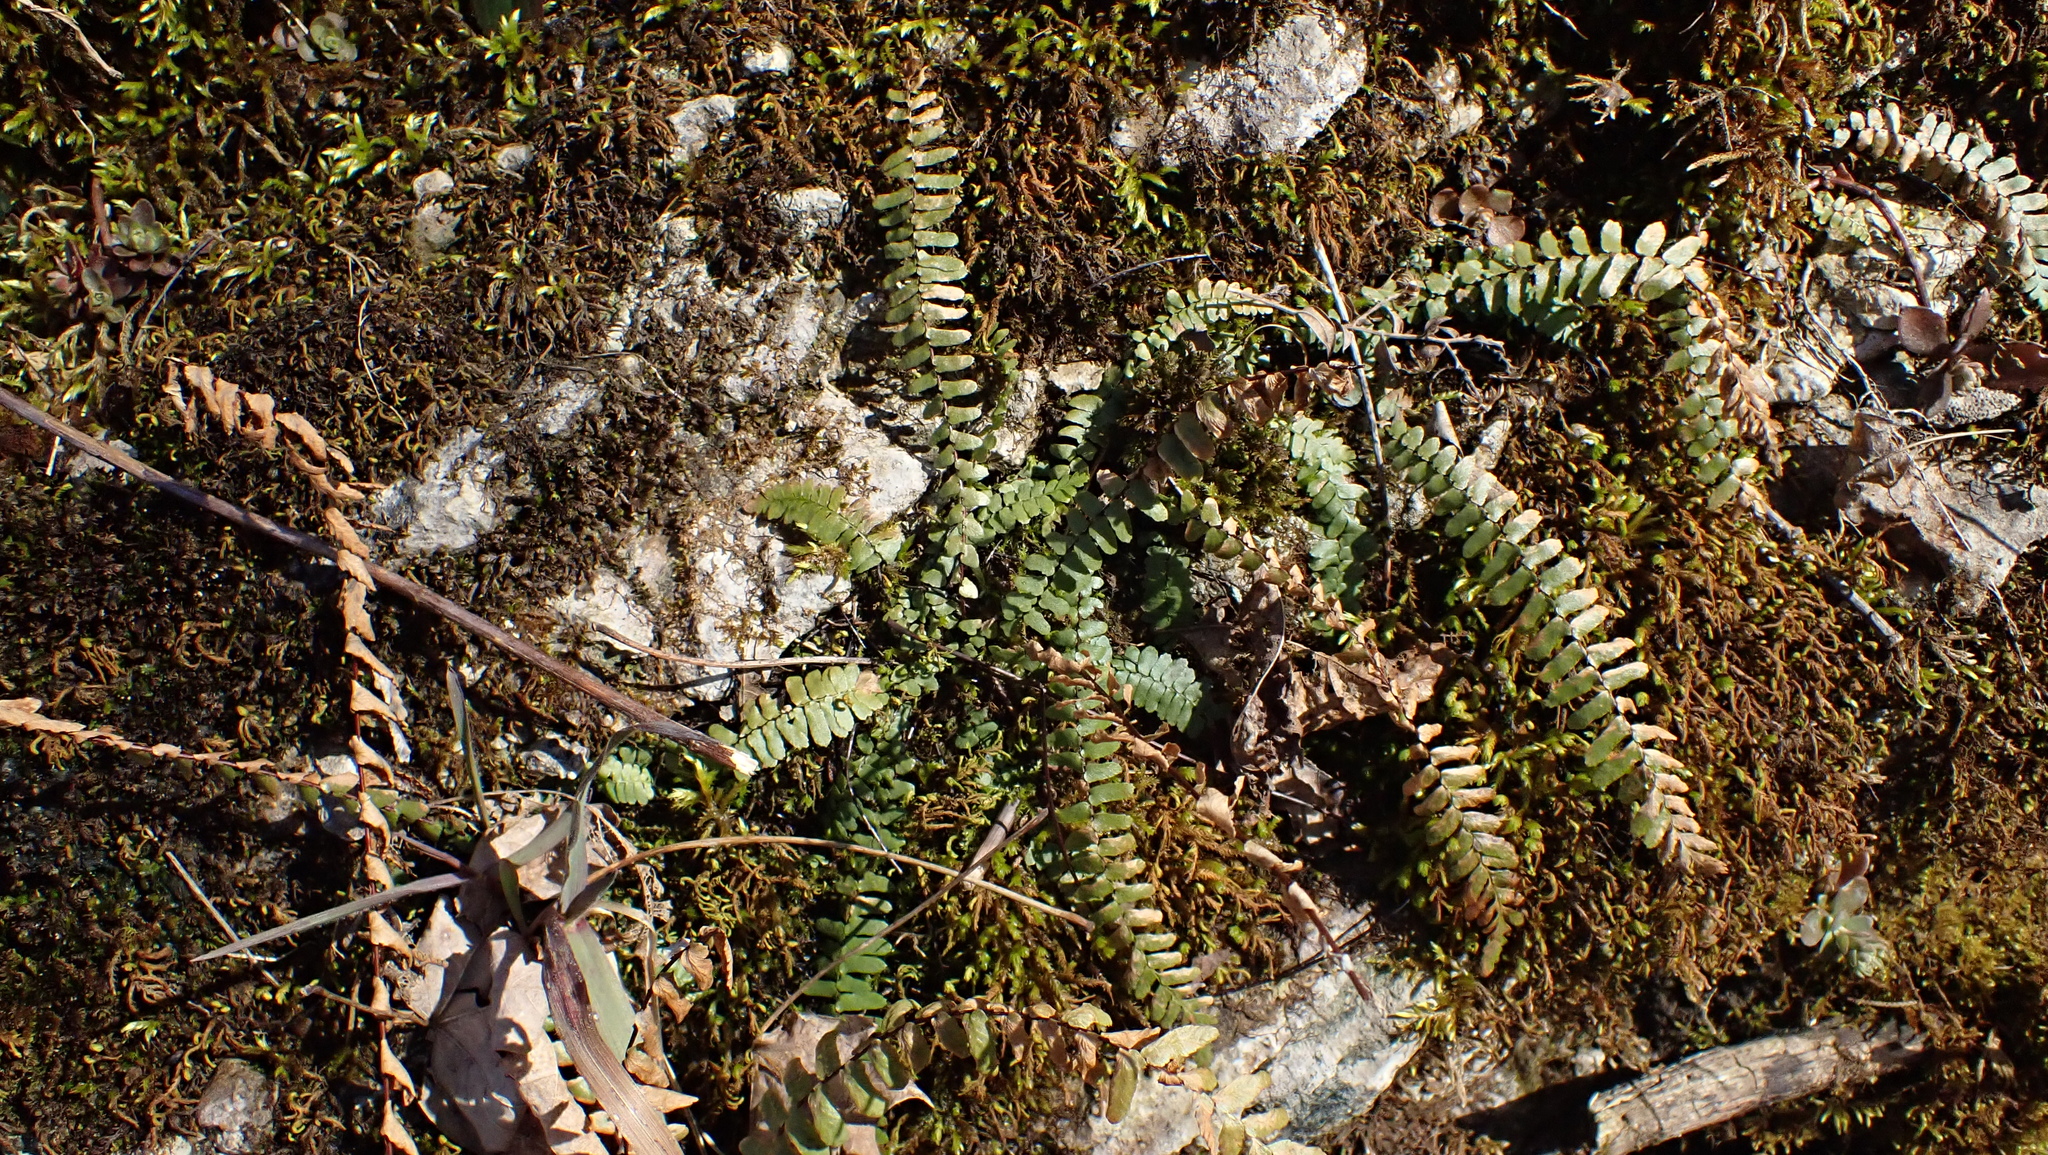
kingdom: Plantae
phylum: Tracheophyta
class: Polypodiopsida
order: Polypodiales
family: Aspleniaceae
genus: Asplenium
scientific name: Asplenium platyneuron
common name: Ebony spleenwort
